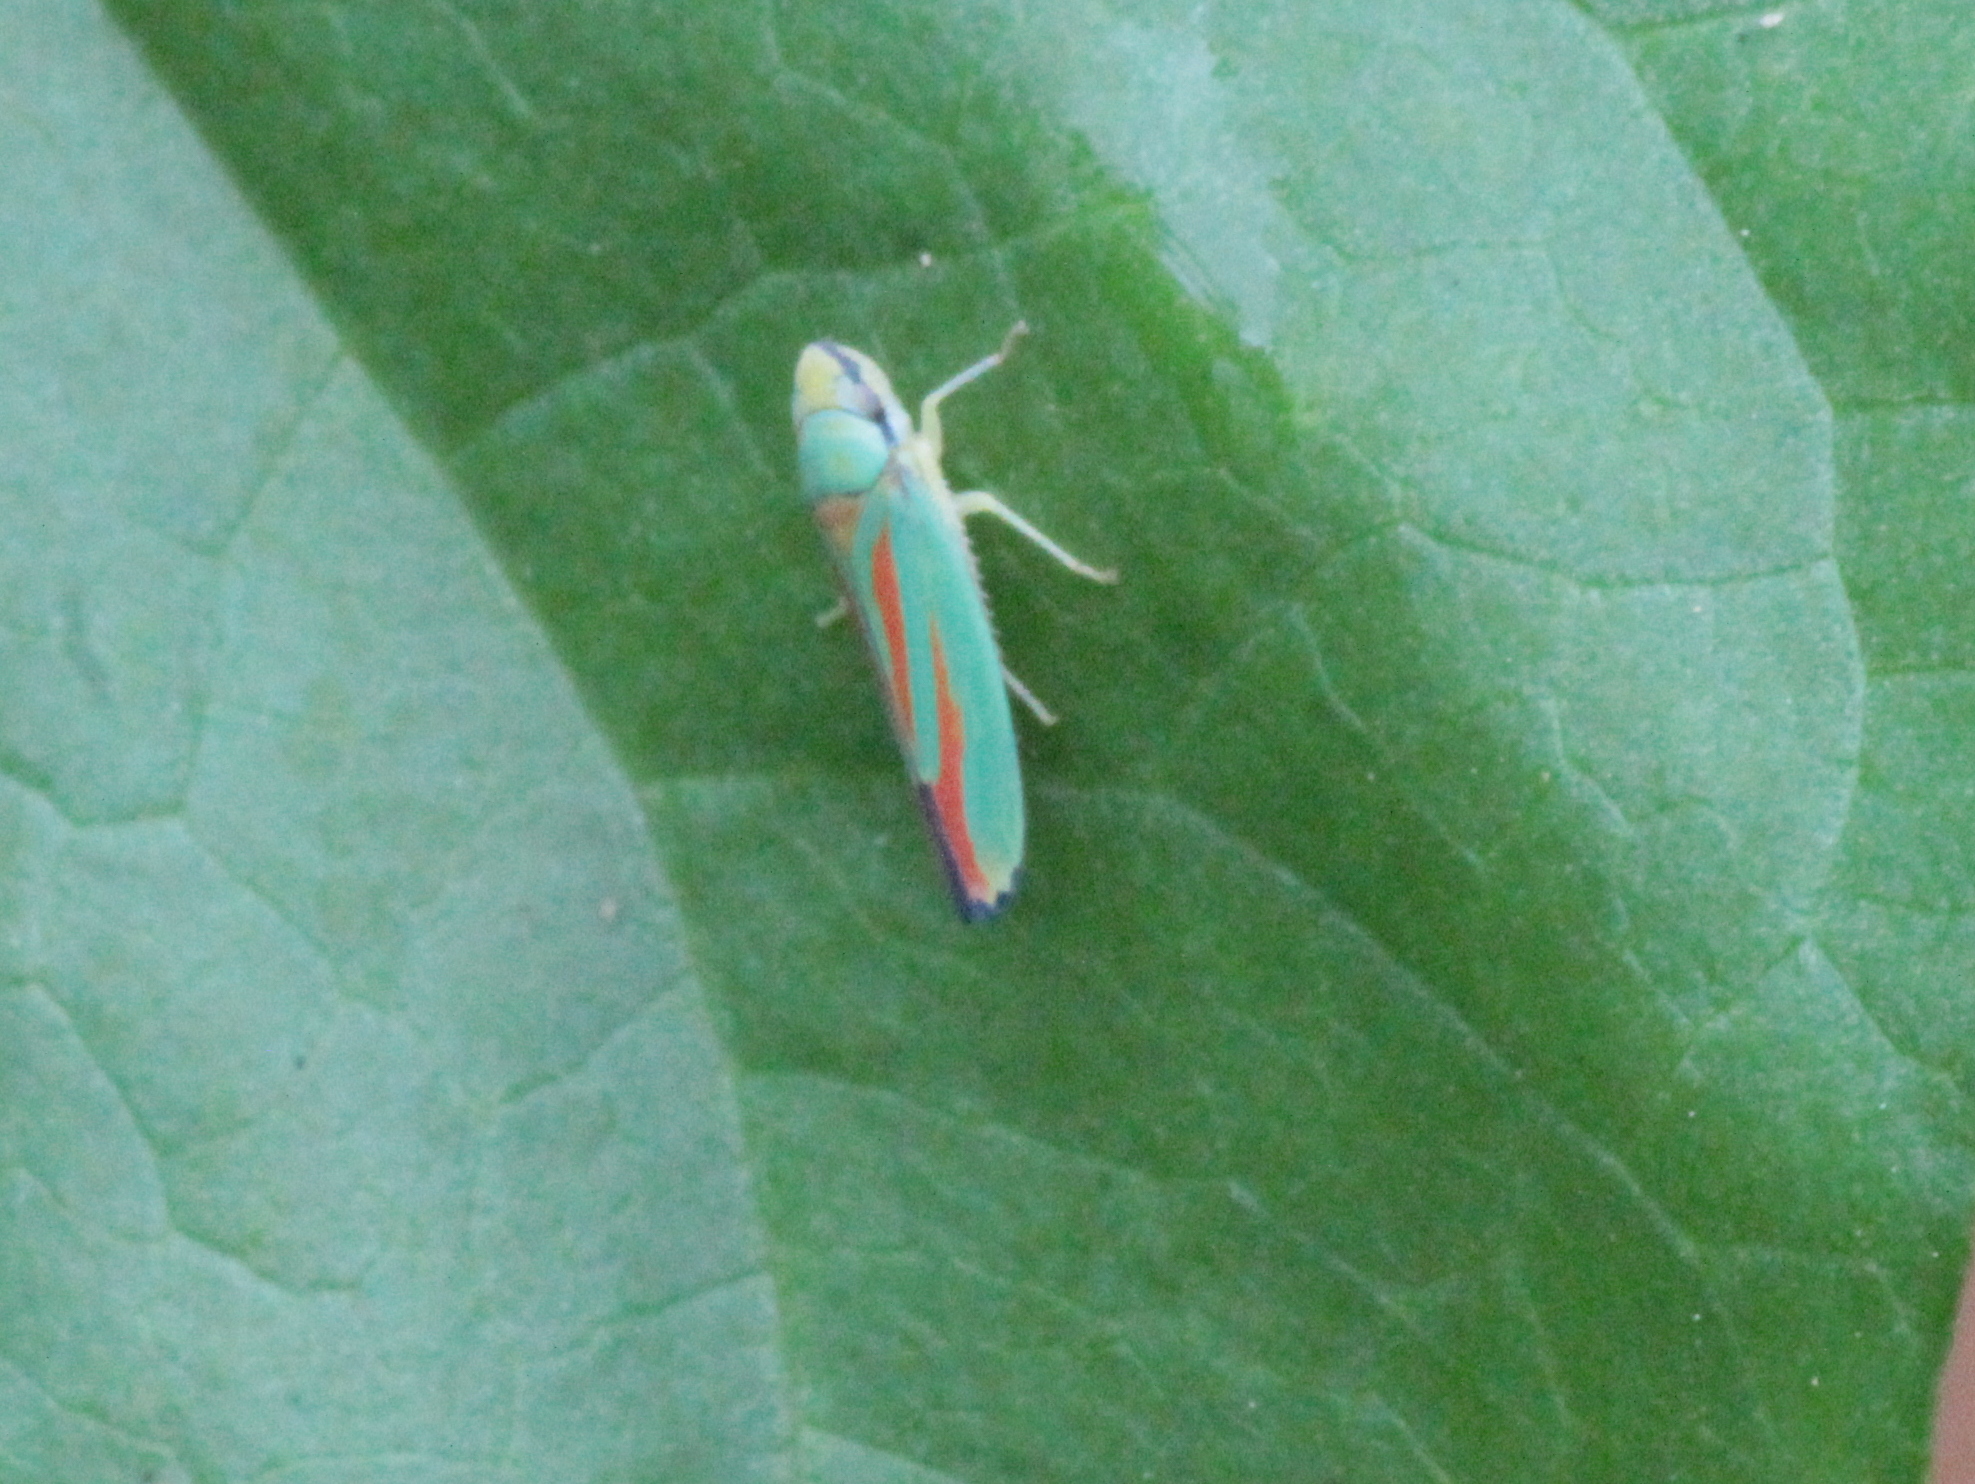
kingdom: Animalia
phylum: Arthropoda
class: Insecta
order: Hemiptera
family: Cicadellidae
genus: Graphocephala
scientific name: Graphocephala fennahi
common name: Rhododendron leafhopper
